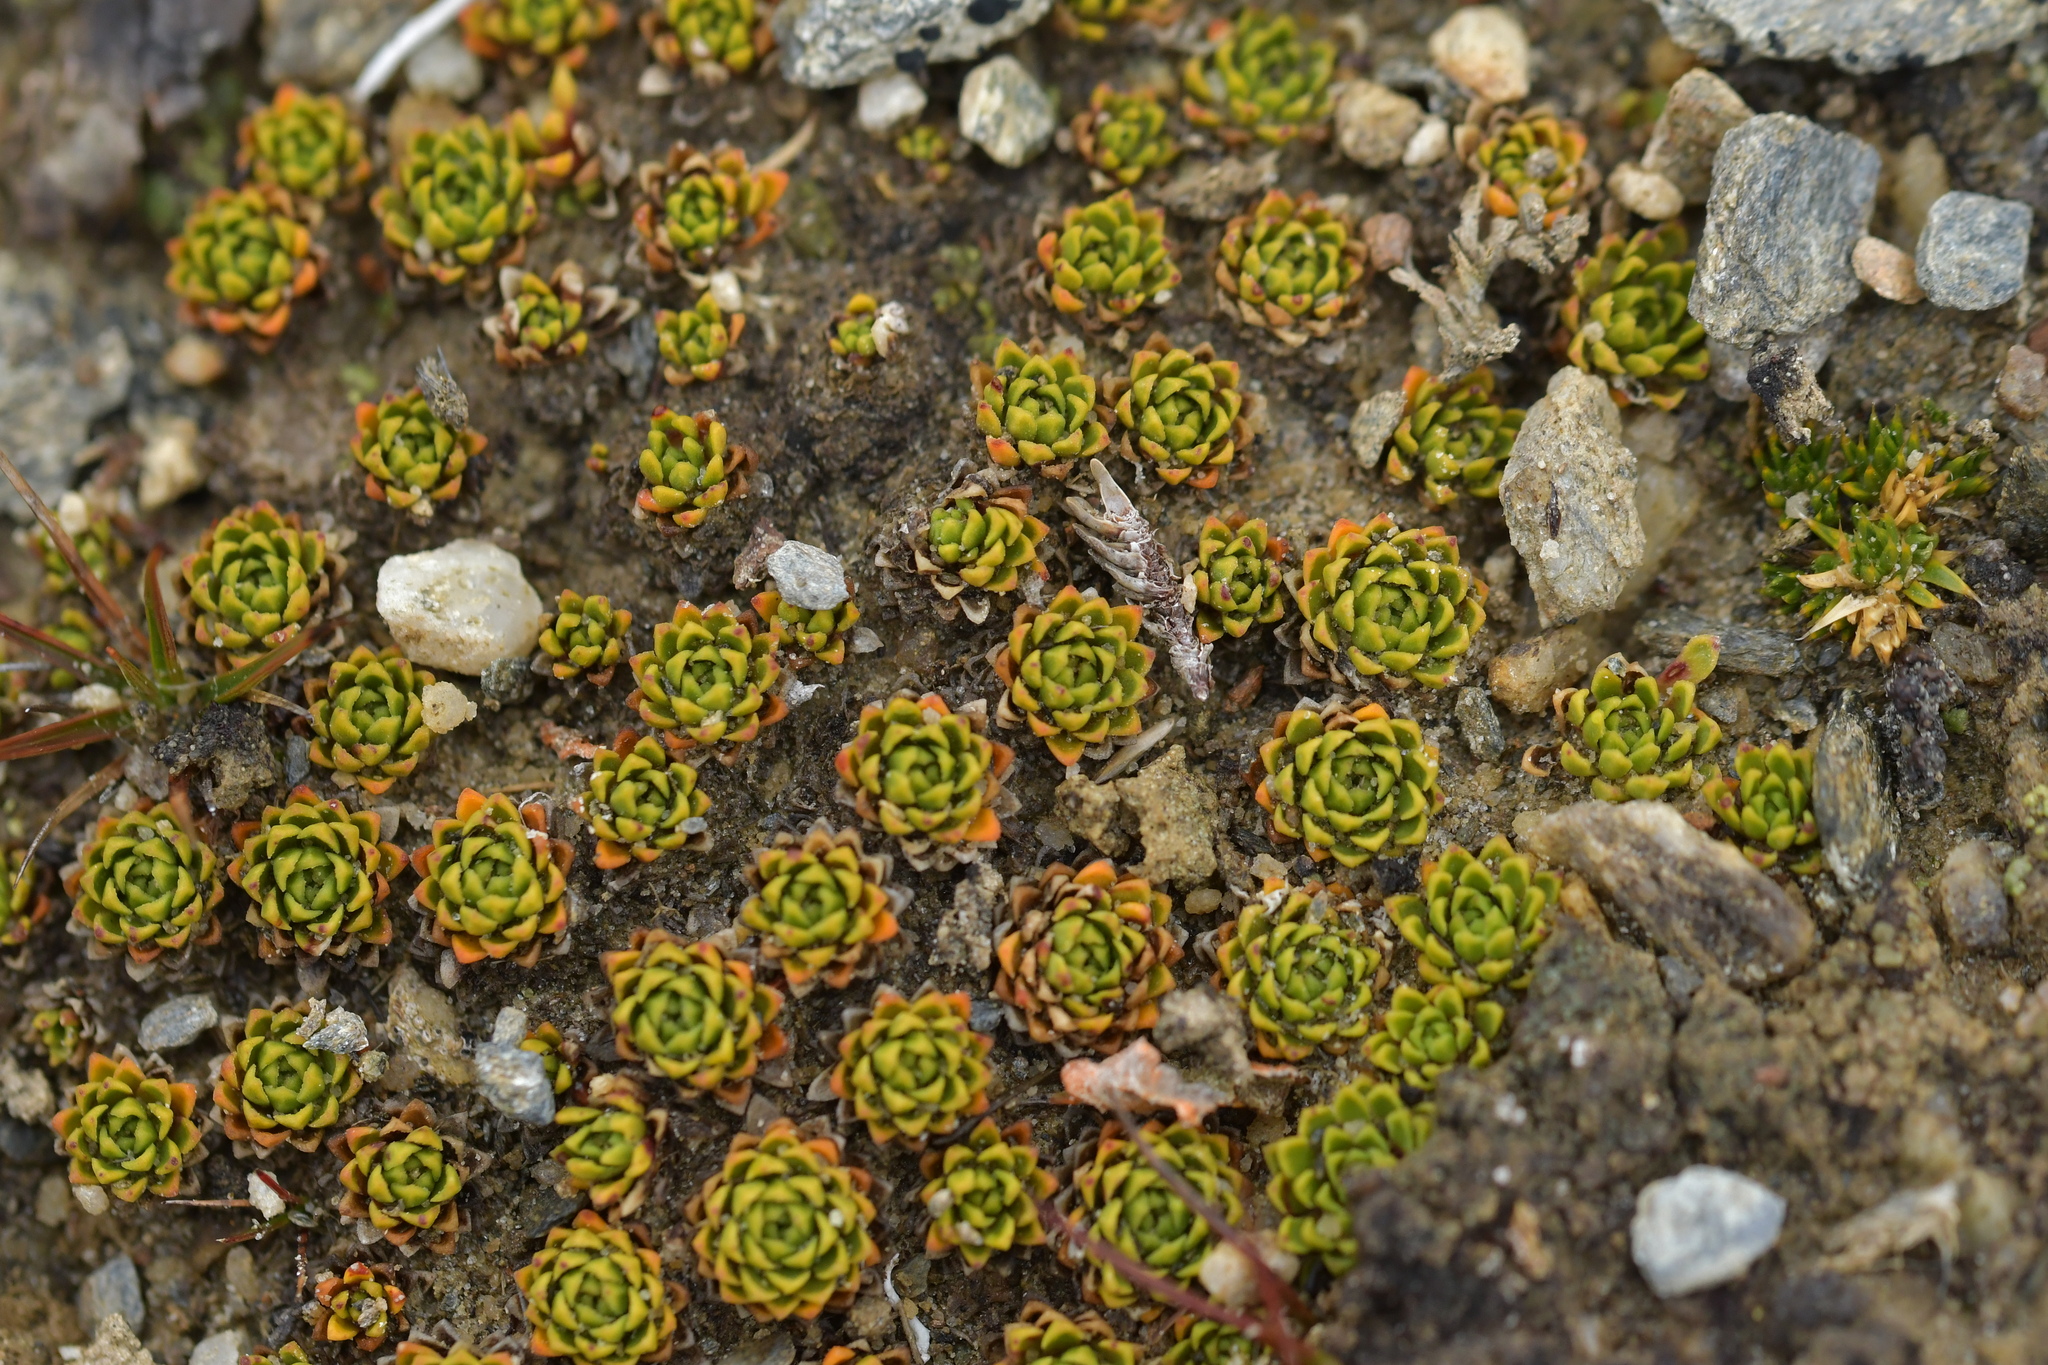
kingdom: Plantae
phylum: Tracheophyta
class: Magnoliopsida
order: Caryophyllales
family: Montiaceae
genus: Hectorella
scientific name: Hectorella caespitosa
